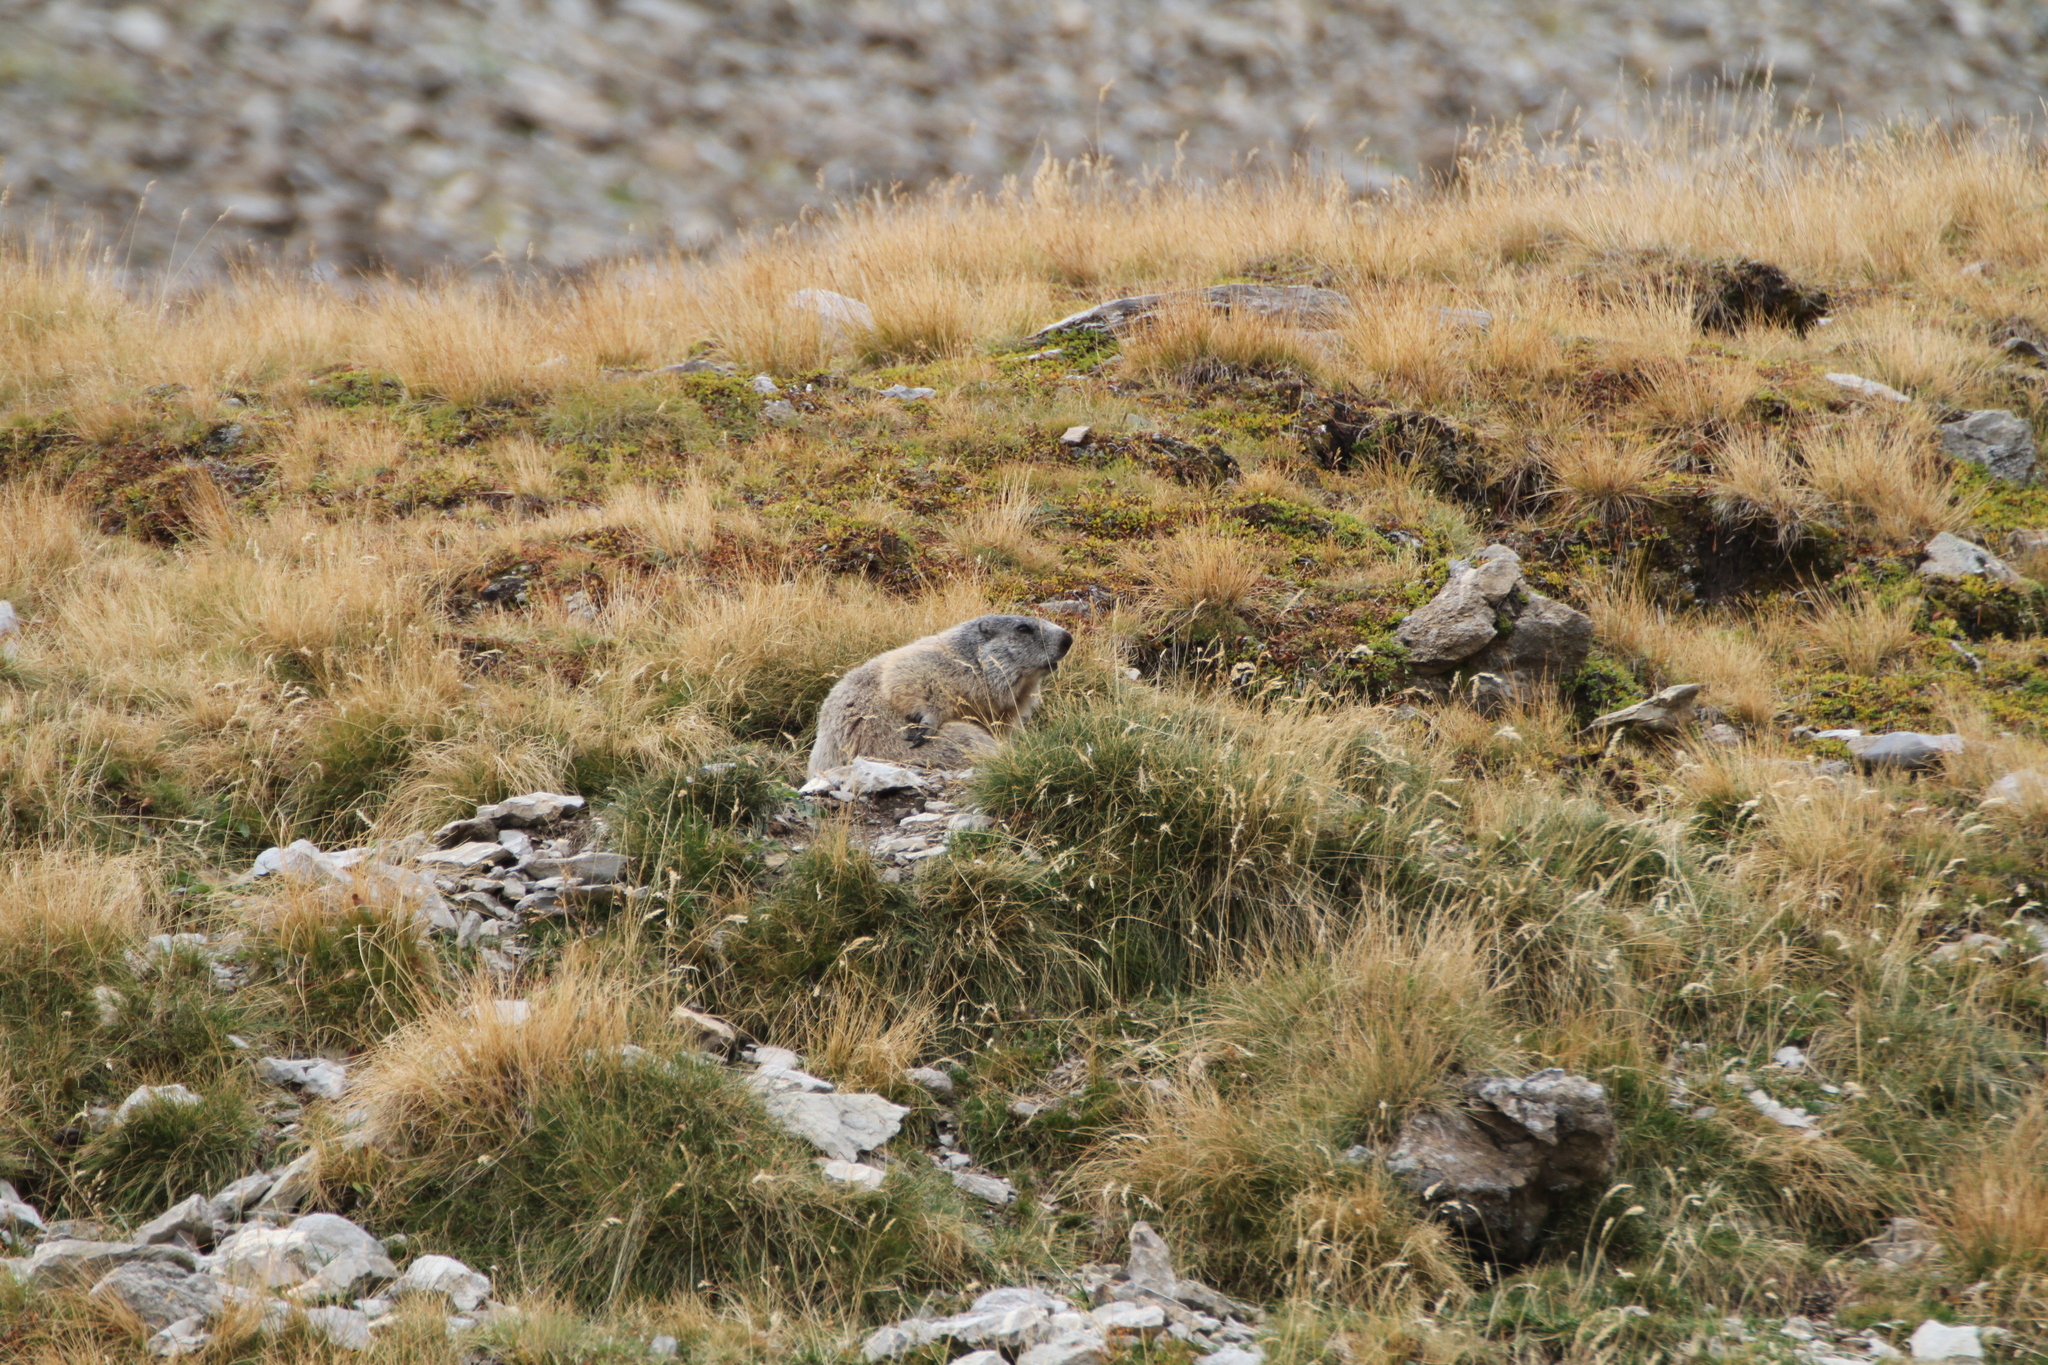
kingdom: Animalia
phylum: Chordata
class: Mammalia
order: Rodentia
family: Sciuridae
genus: Marmota
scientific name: Marmota marmota
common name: Alpine marmot
